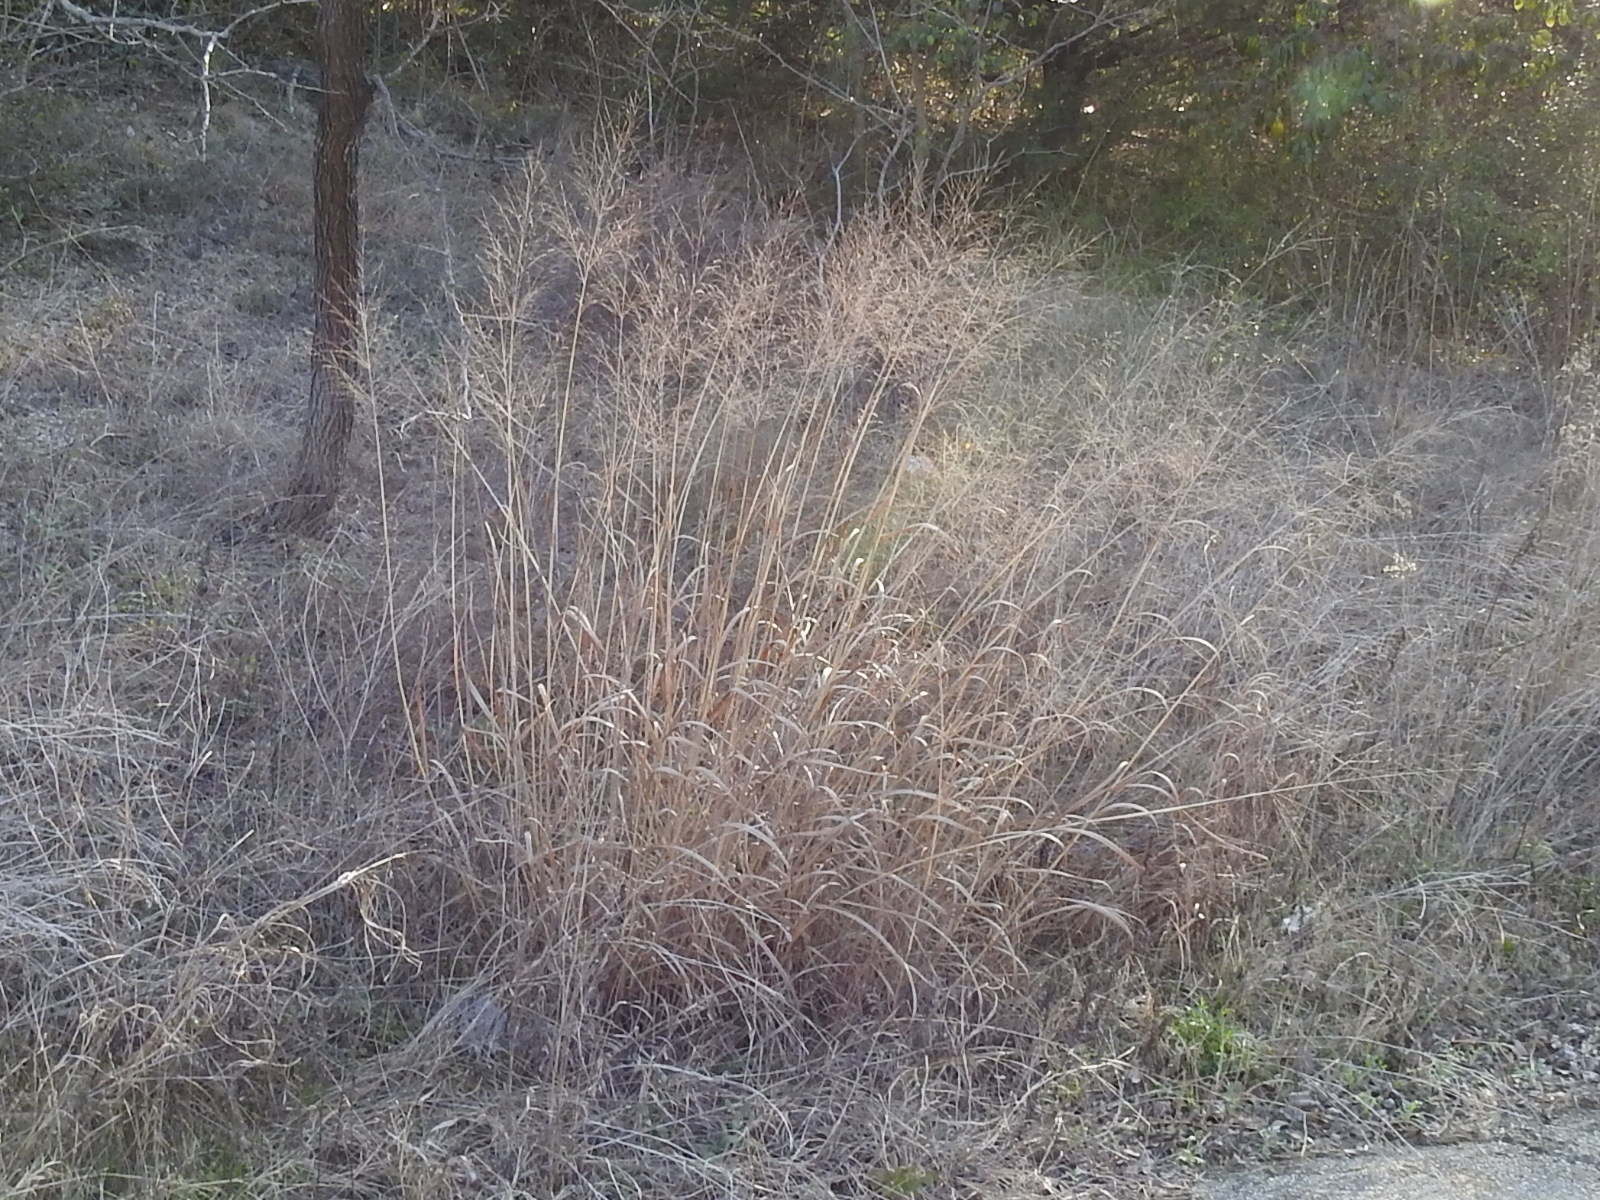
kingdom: Plantae
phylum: Tracheophyta
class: Liliopsida
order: Poales
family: Poaceae
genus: Panicum
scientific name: Panicum virgatum
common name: Switchgrass
